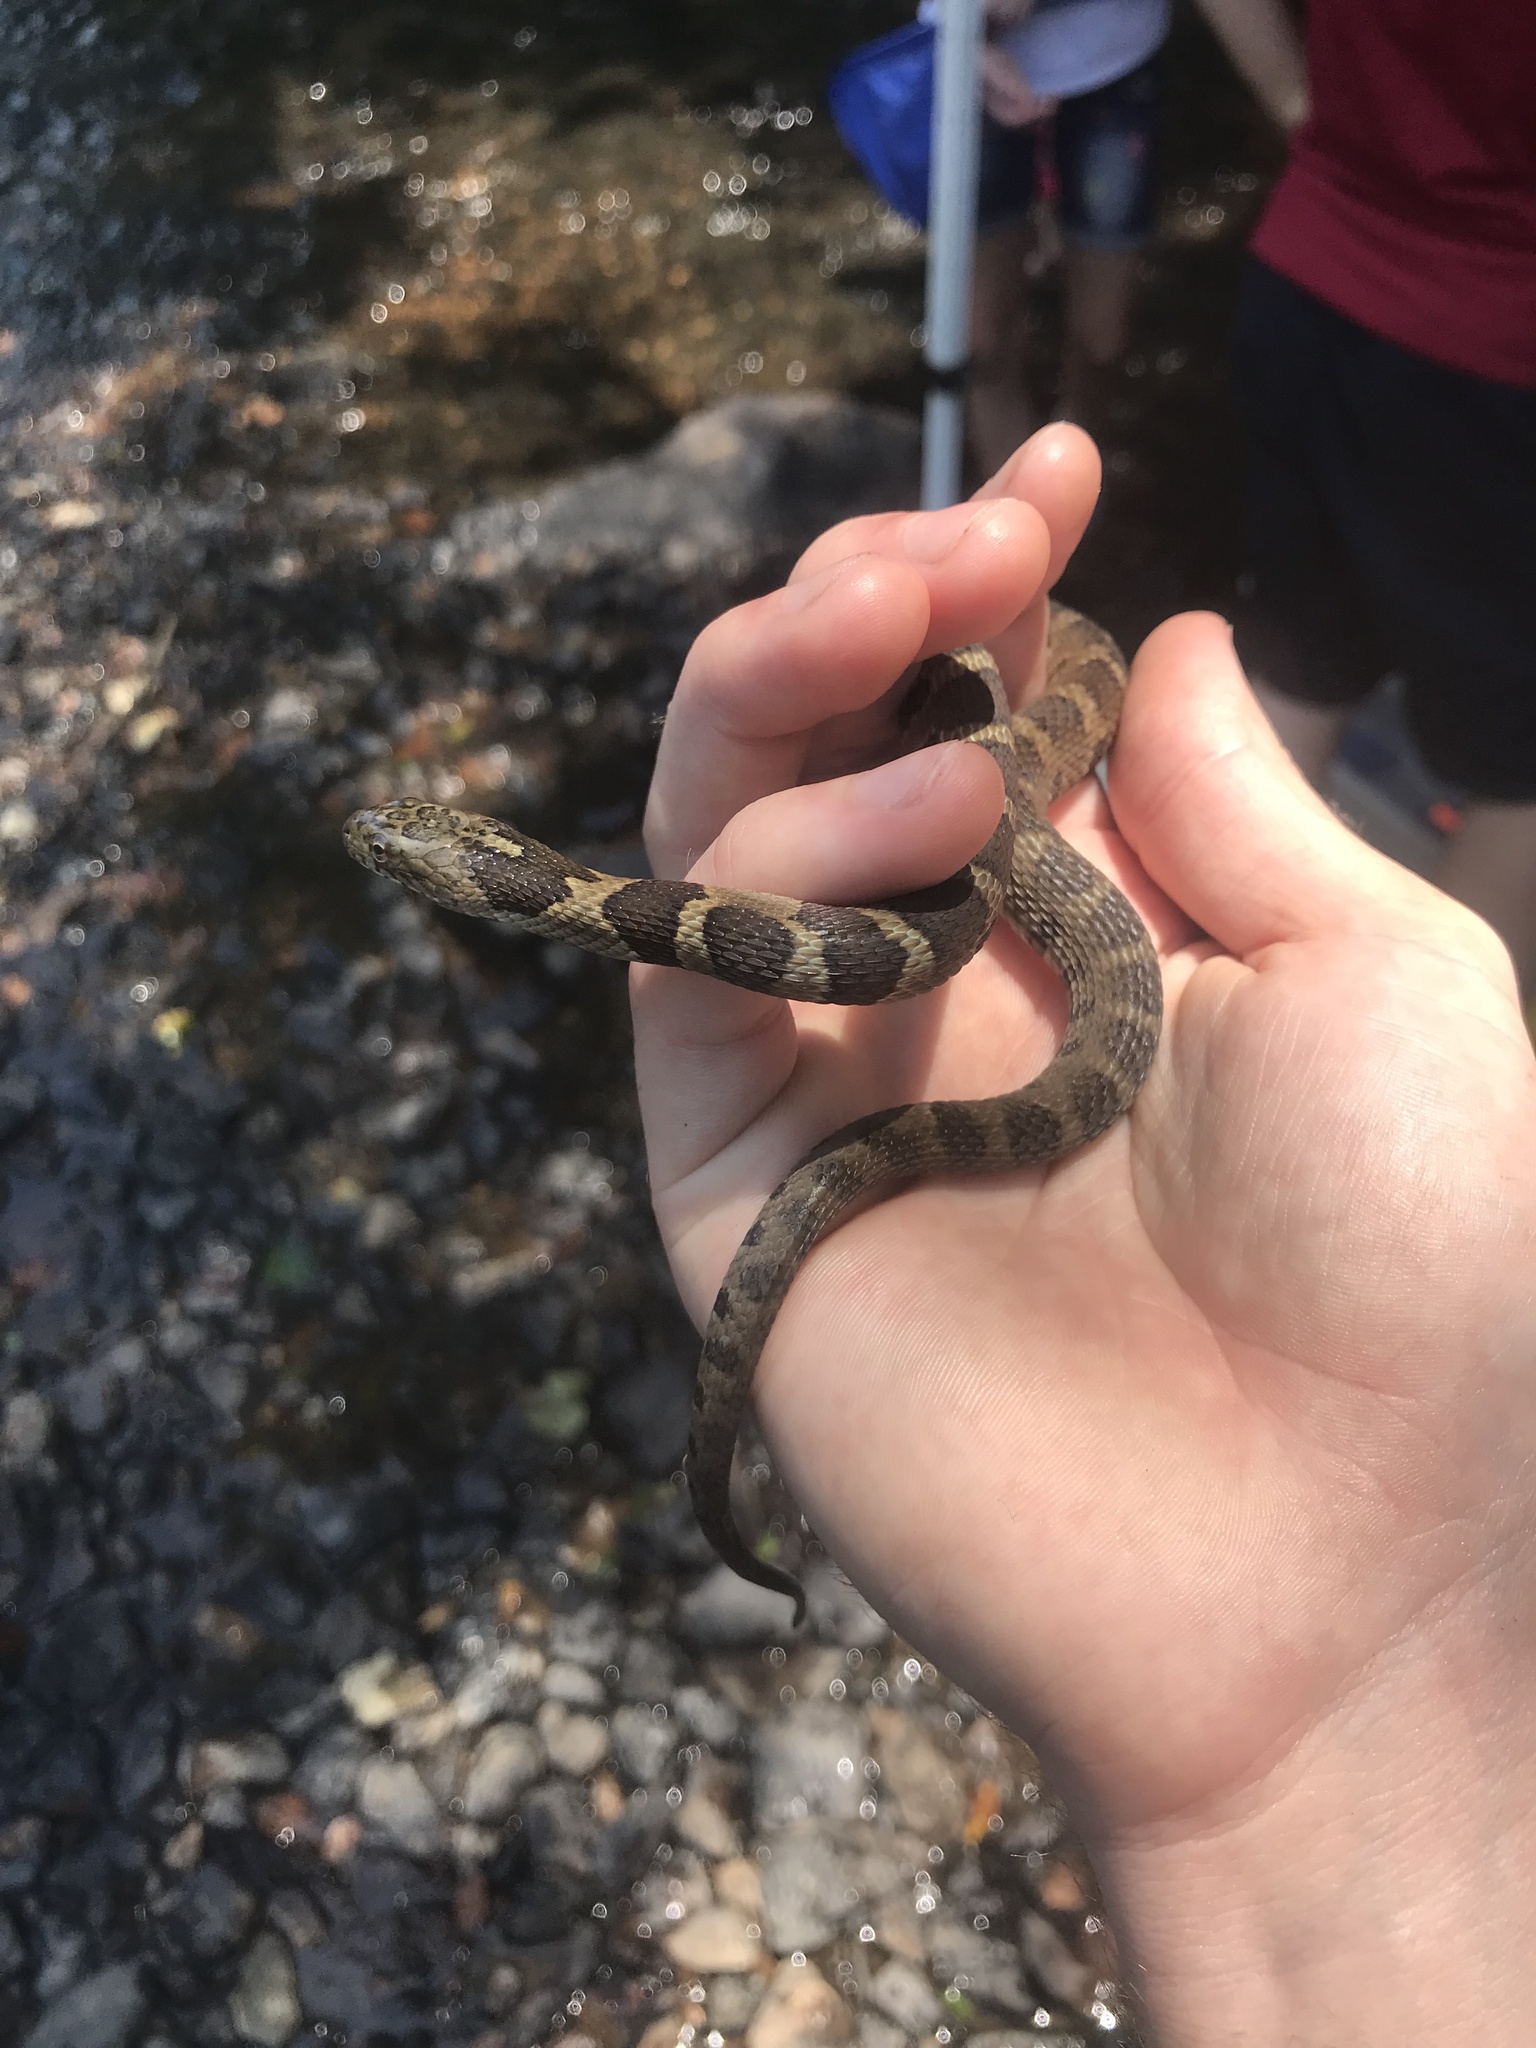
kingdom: Animalia
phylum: Chordata
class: Squamata
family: Colubridae
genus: Nerodia
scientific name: Nerodia sipedon
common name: Northern water snake
